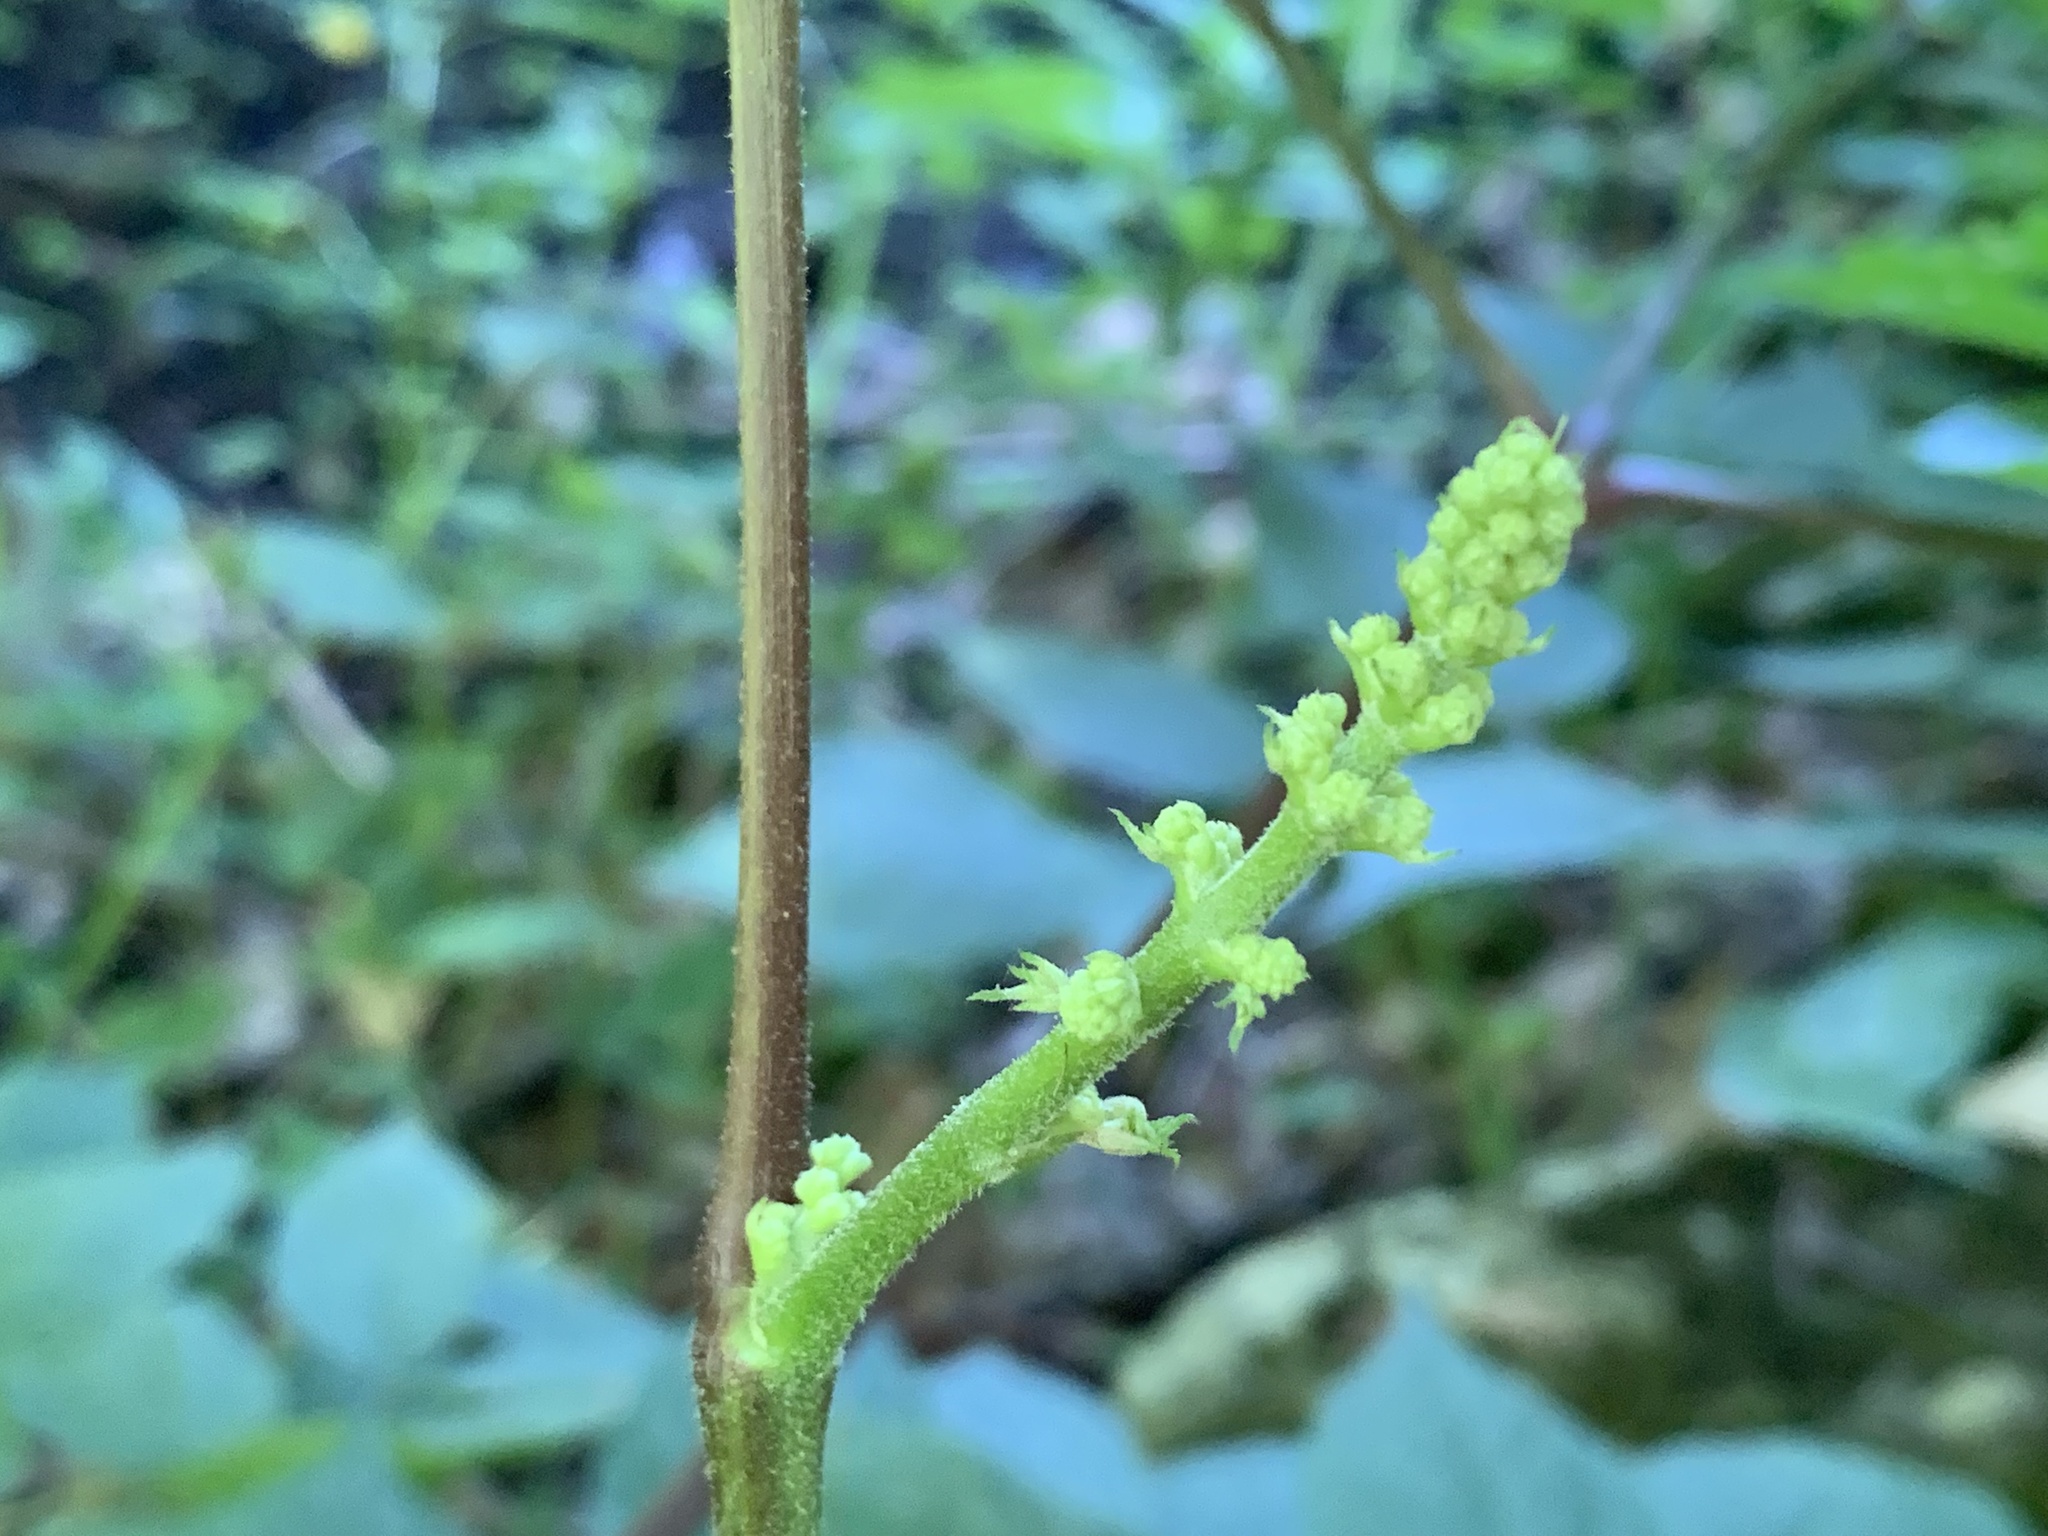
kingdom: Plantae
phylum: Tracheophyta
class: Magnoliopsida
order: Apiales
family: Araliaceae
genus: Aralia
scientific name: Aralia racemosa
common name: American-spikenard
